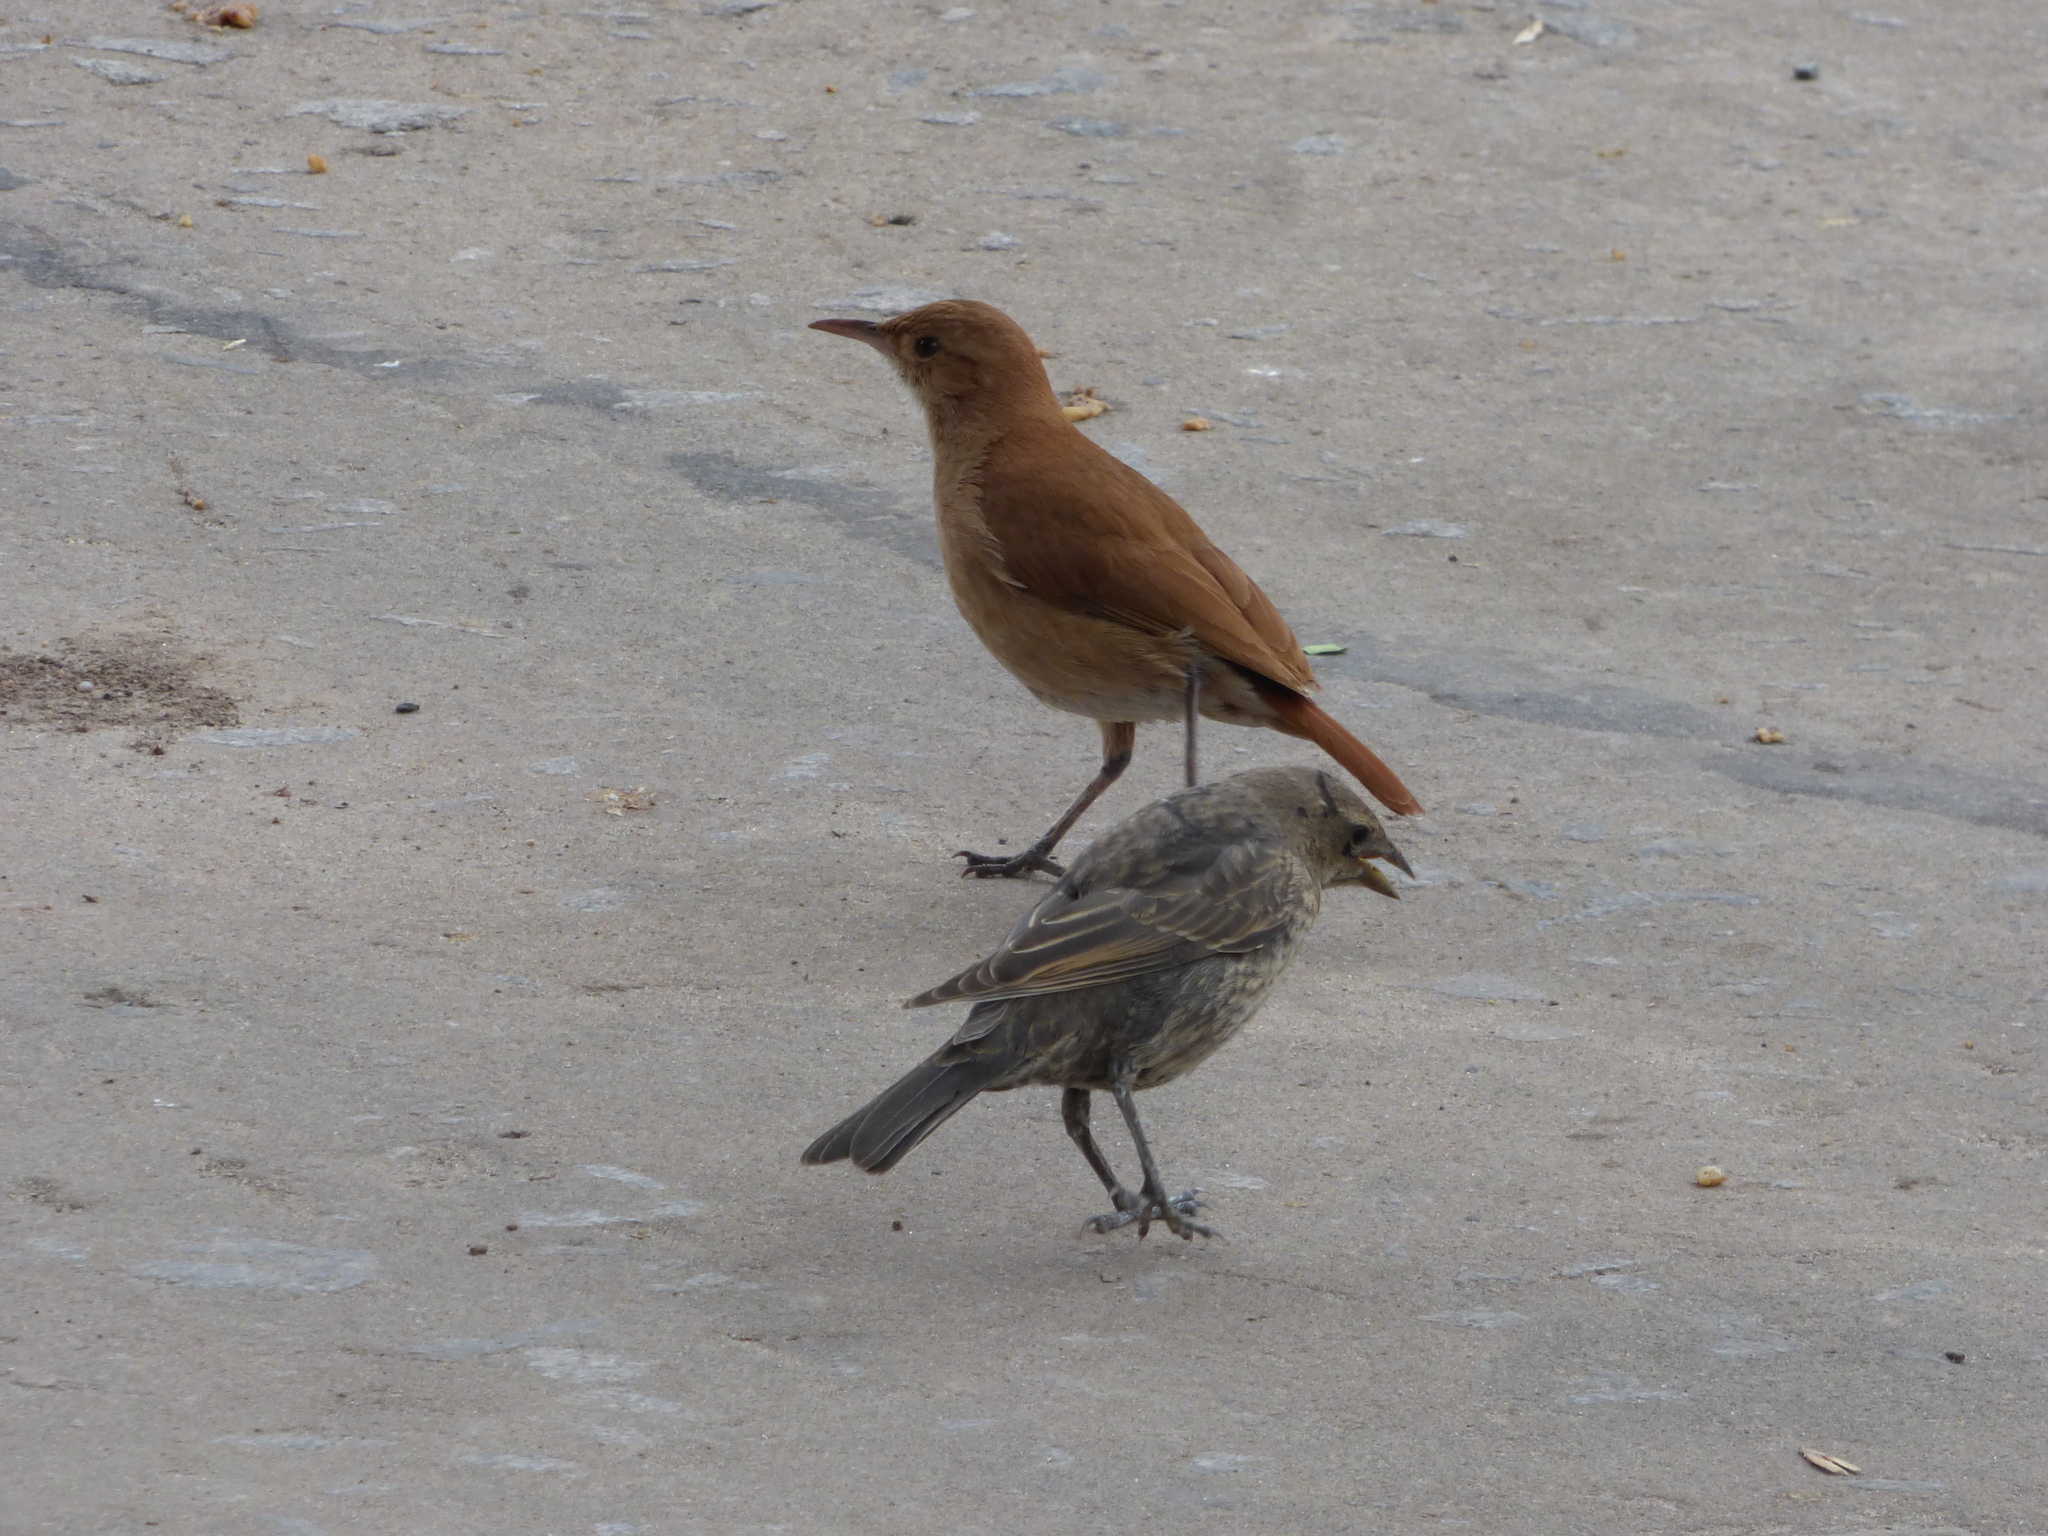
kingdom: Animalia
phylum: Chordata
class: Aves
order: Passeriformes
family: Furnariidae
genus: Furnarius
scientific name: Furnarius rufus
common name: Rufous hornero
